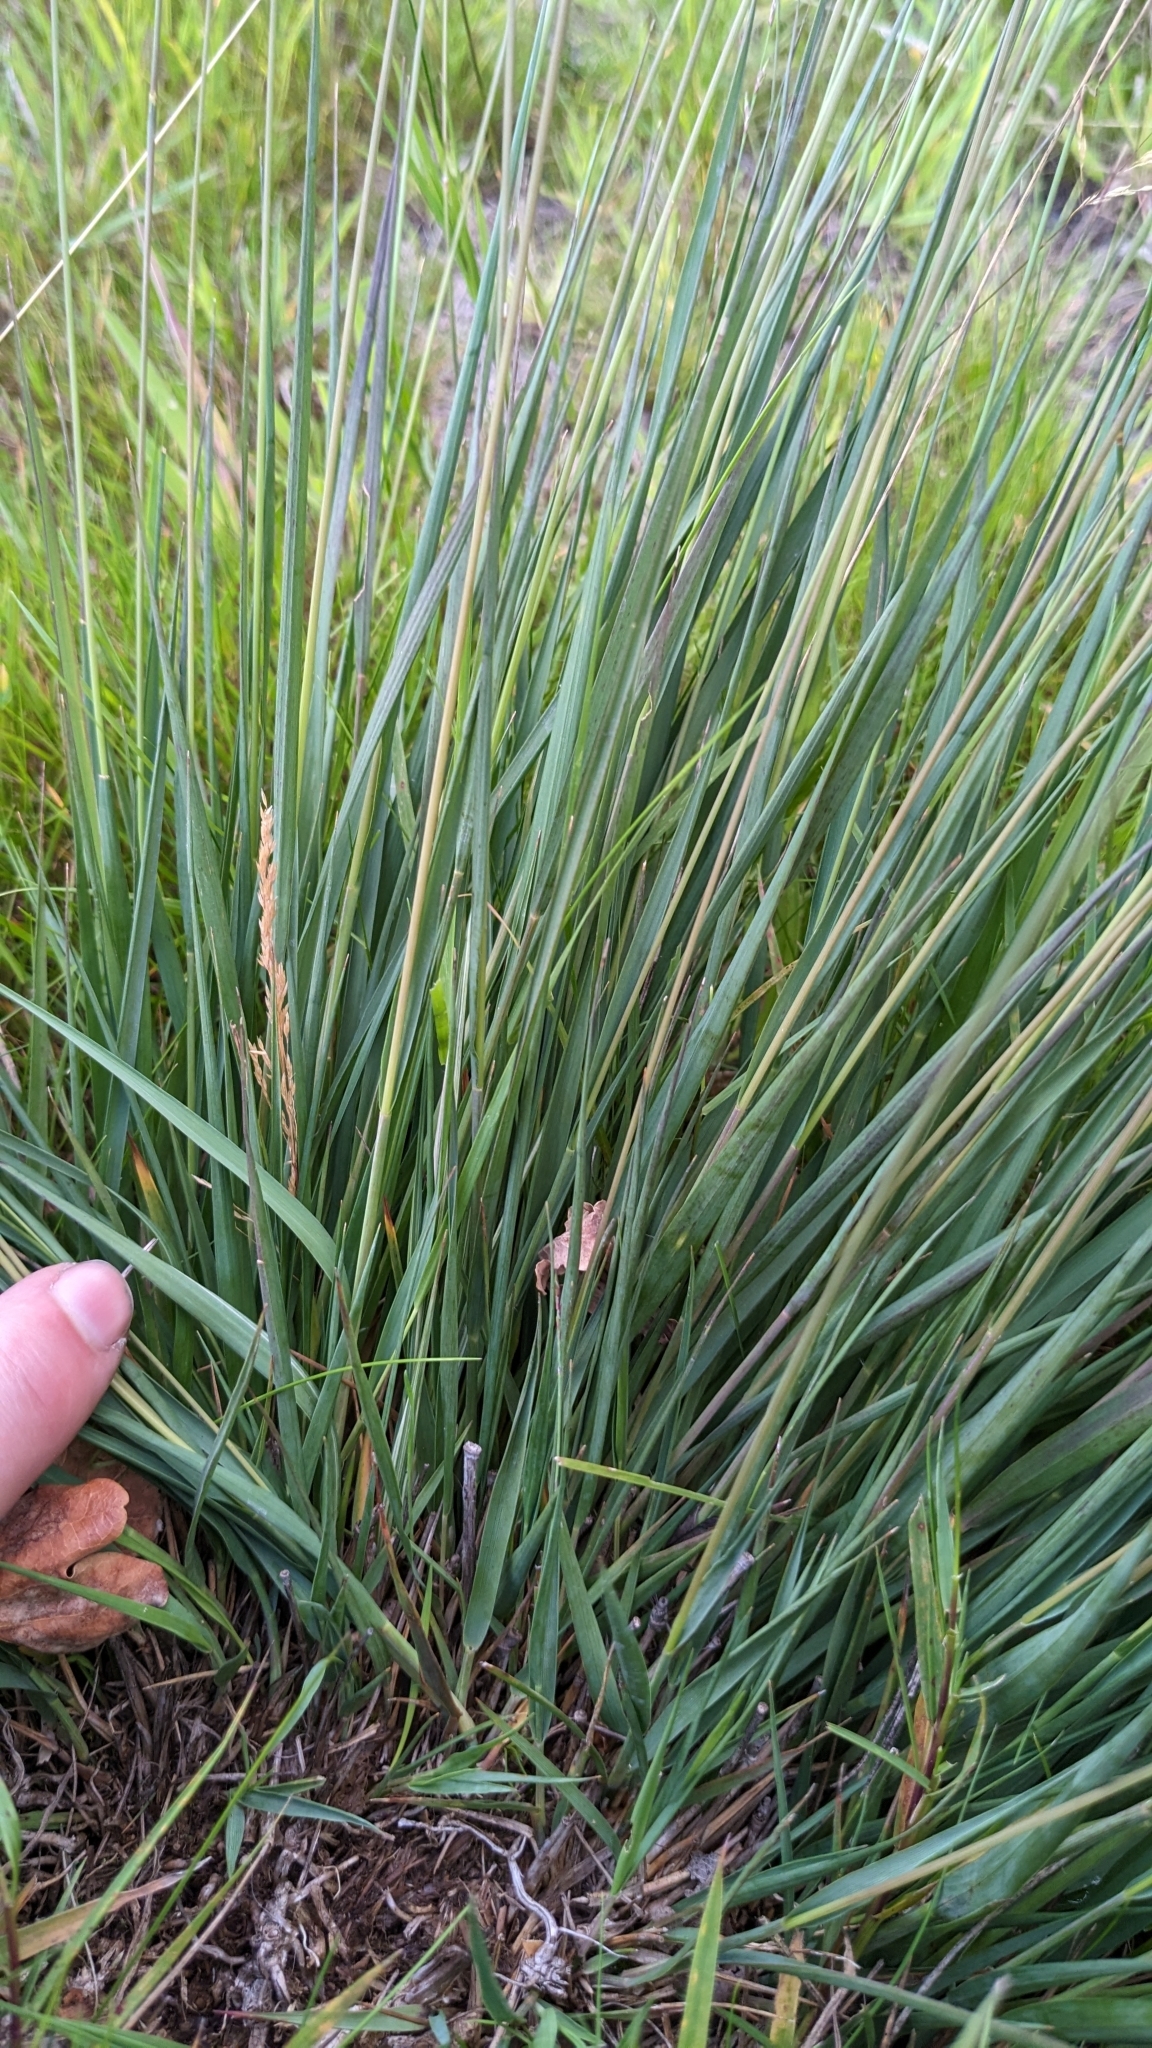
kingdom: Plantae
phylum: Tracheophyta
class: Liliopsida
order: Poales
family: Poaceae
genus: Molinia
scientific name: Molinia caerulea
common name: Purple moor-grass
